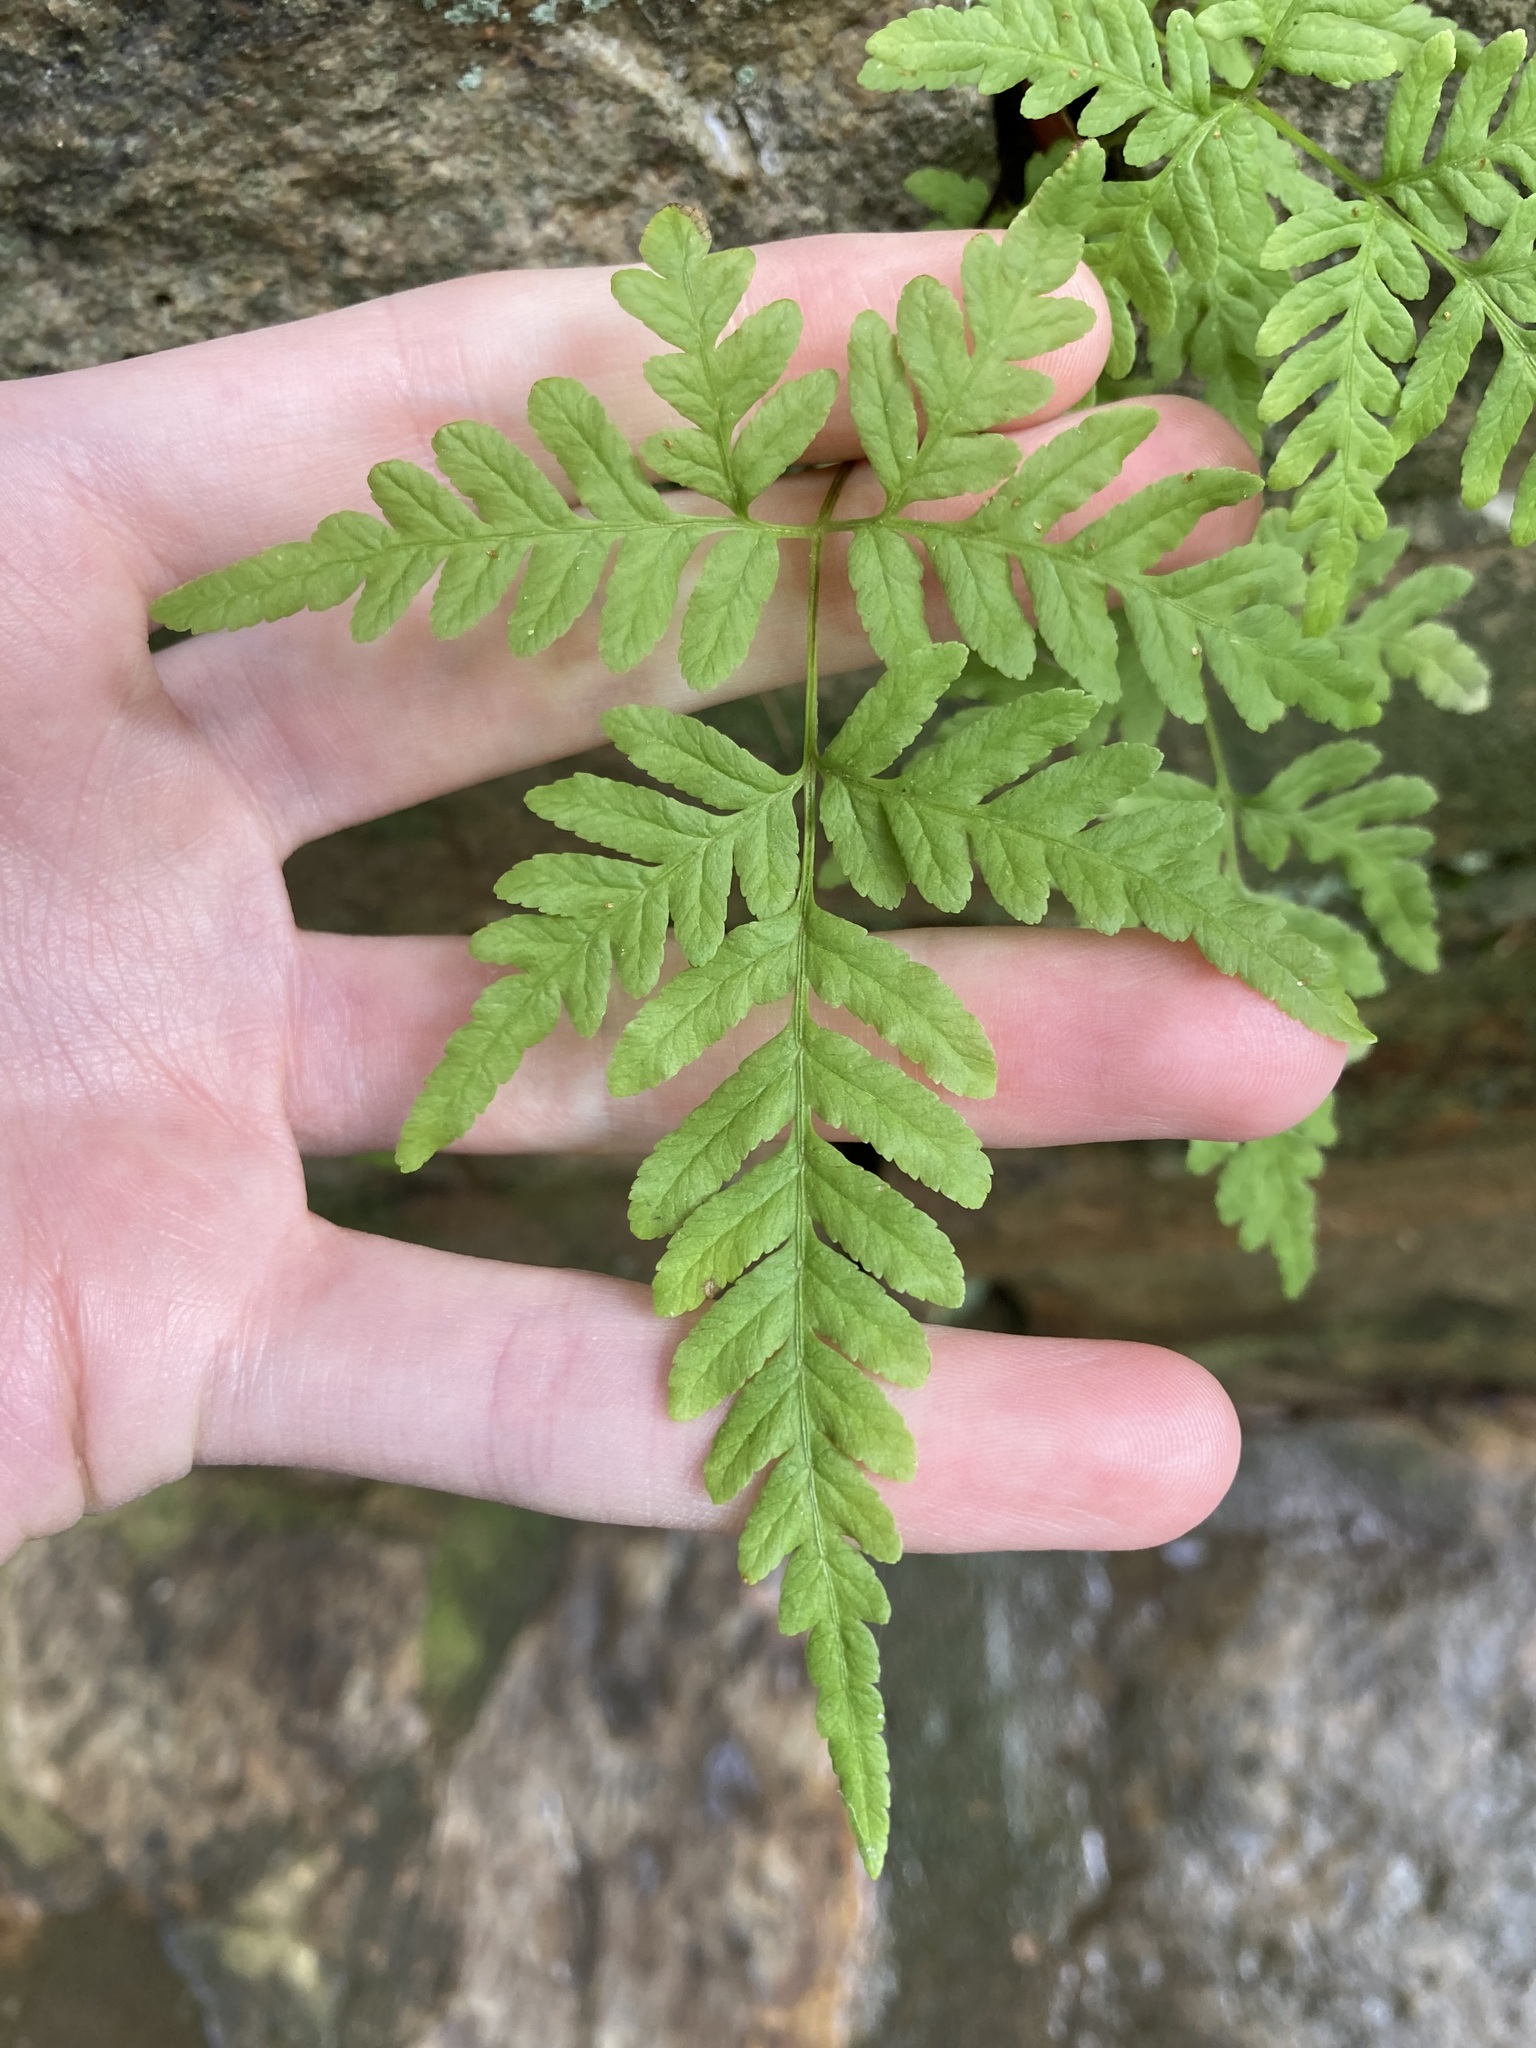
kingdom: Plantae
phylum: Tracheophyta
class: Polypodiopsida
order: Polypodiales
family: Pteridaceae
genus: Pteris
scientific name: Pteris tremula
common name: Australian brake
